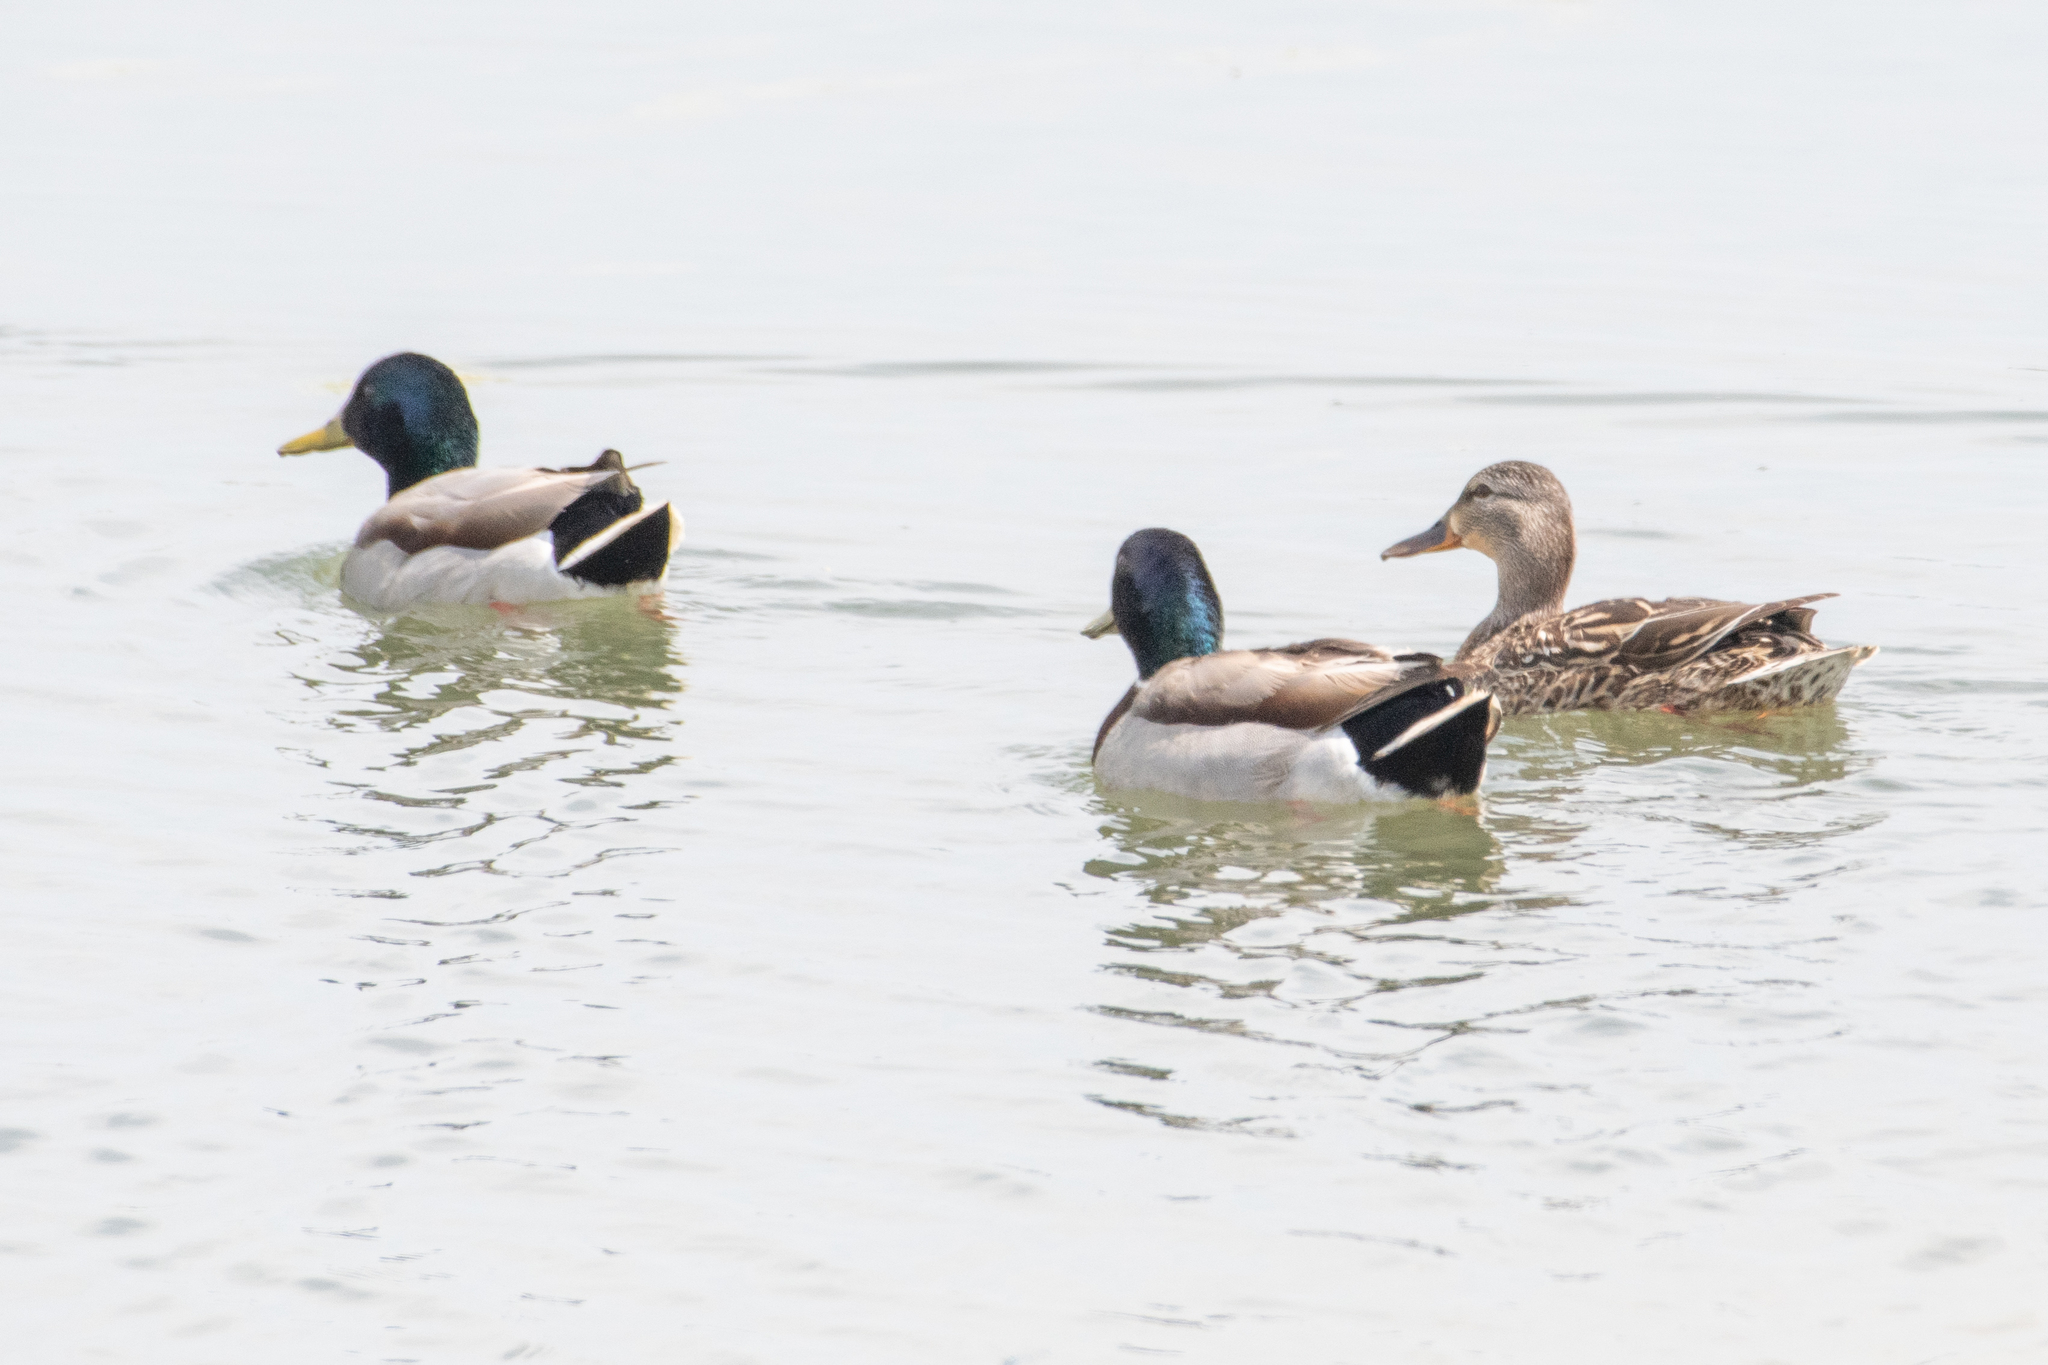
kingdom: Animalia
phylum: Chordata
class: Aves
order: Anseriformes
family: Anatidae
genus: Anas
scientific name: Anas platyrhynchos
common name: Mallard
